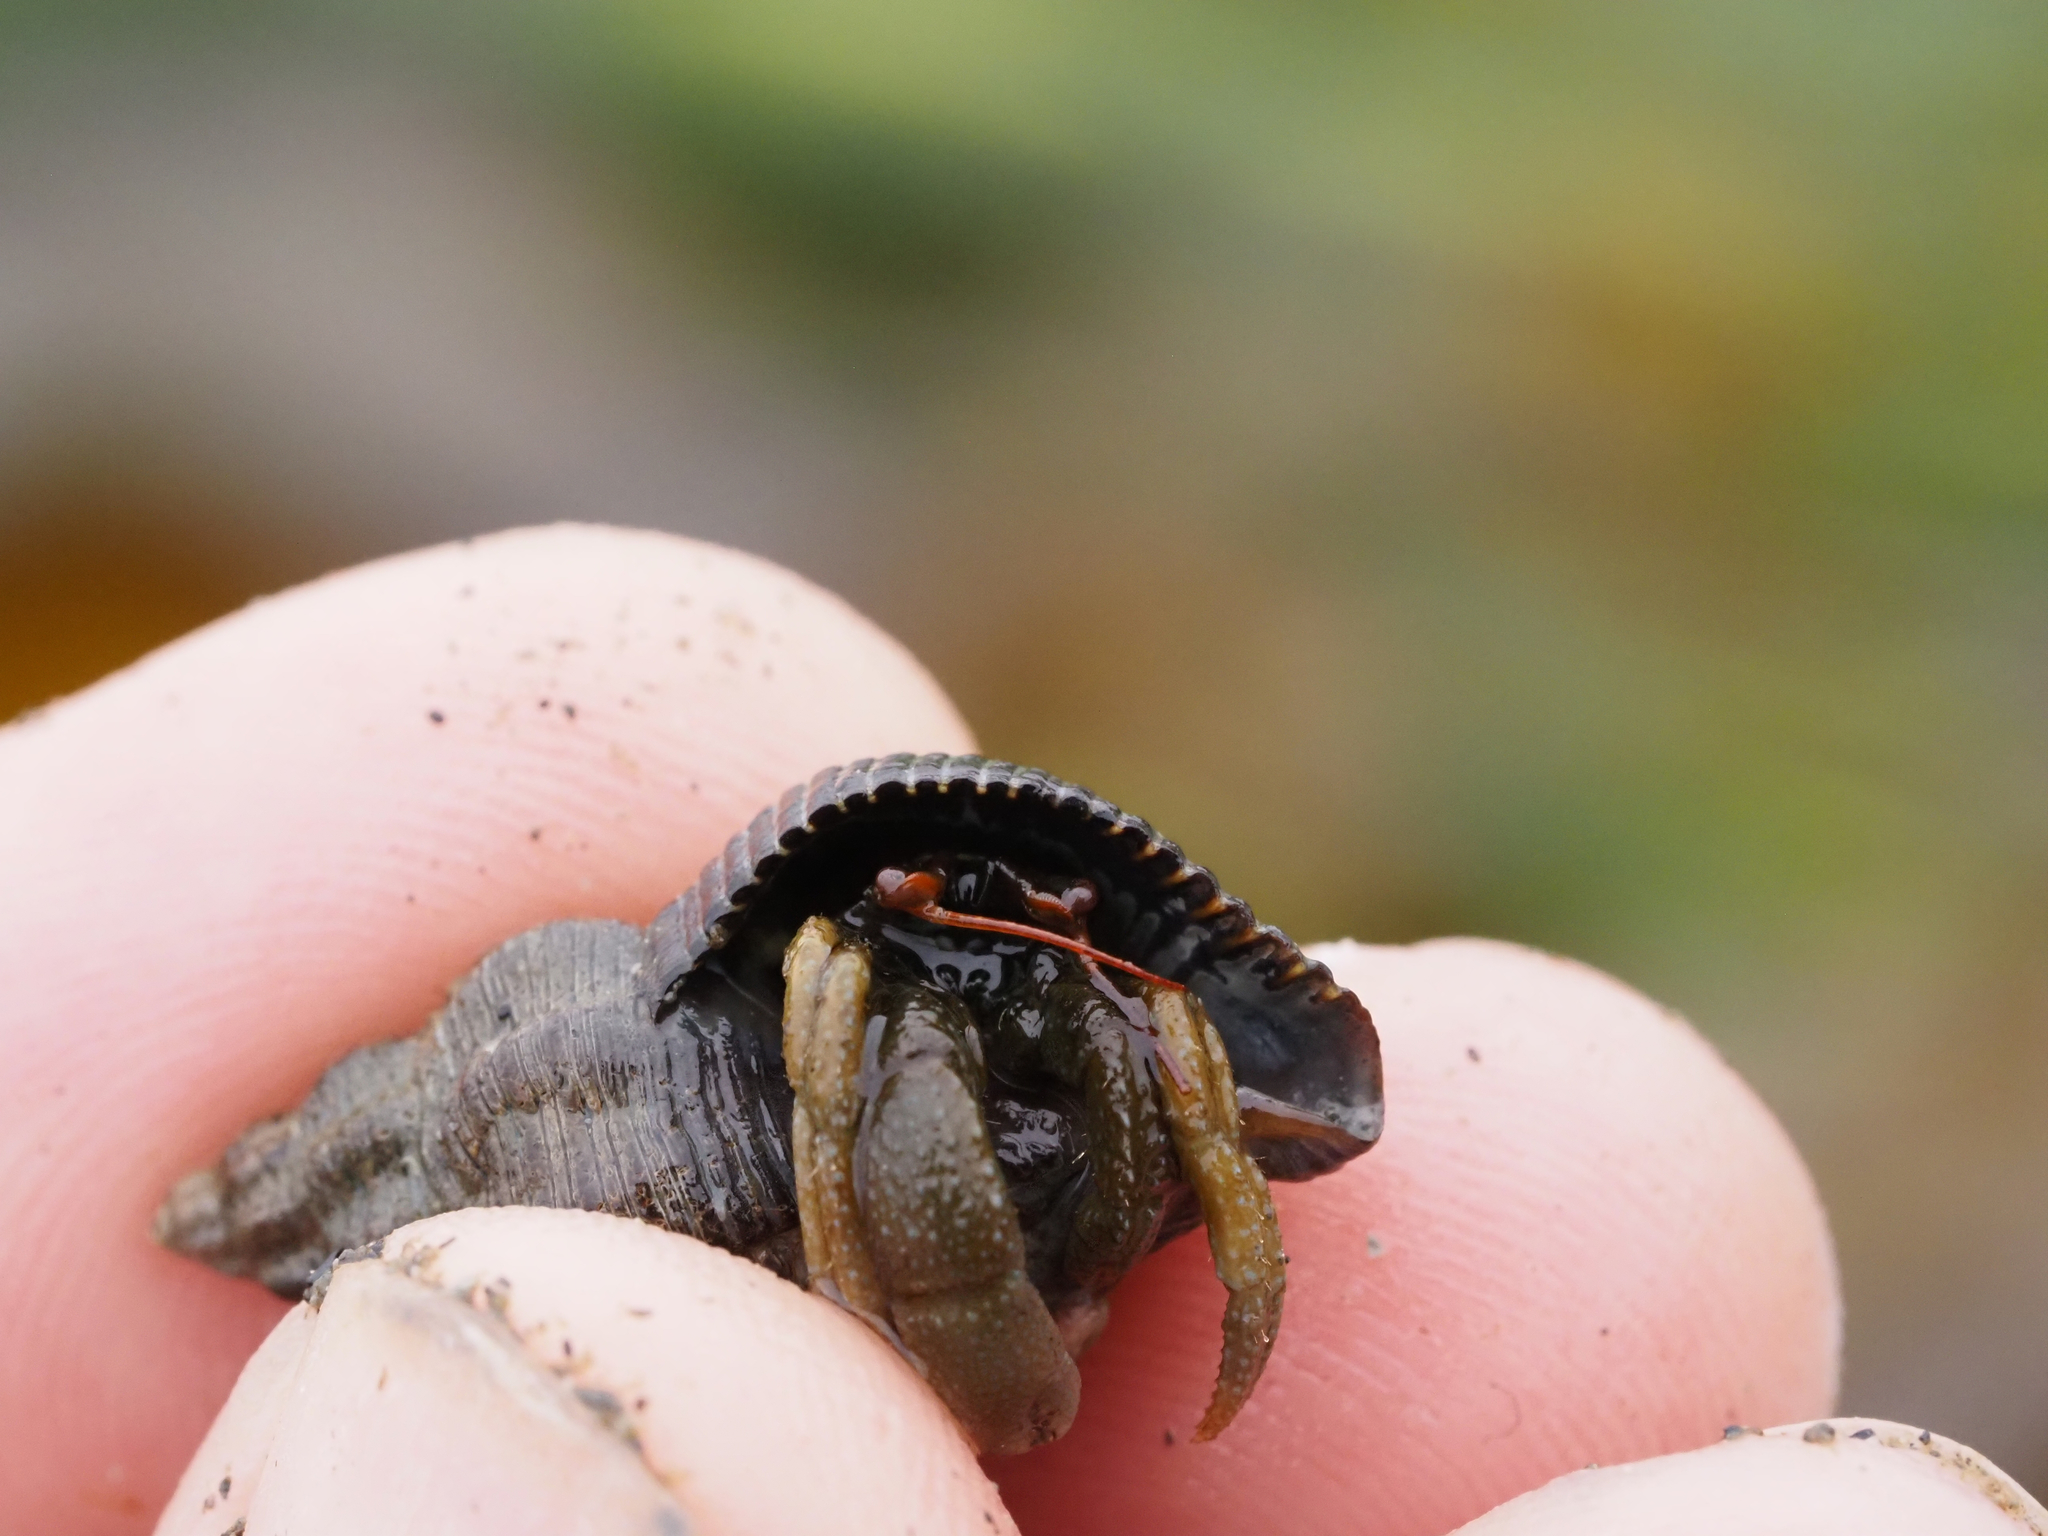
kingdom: Animalia
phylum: Arthropoda
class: Malacostraca
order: Decapoda
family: Paguridae
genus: Pagurus
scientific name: Pagurus granosimanus
